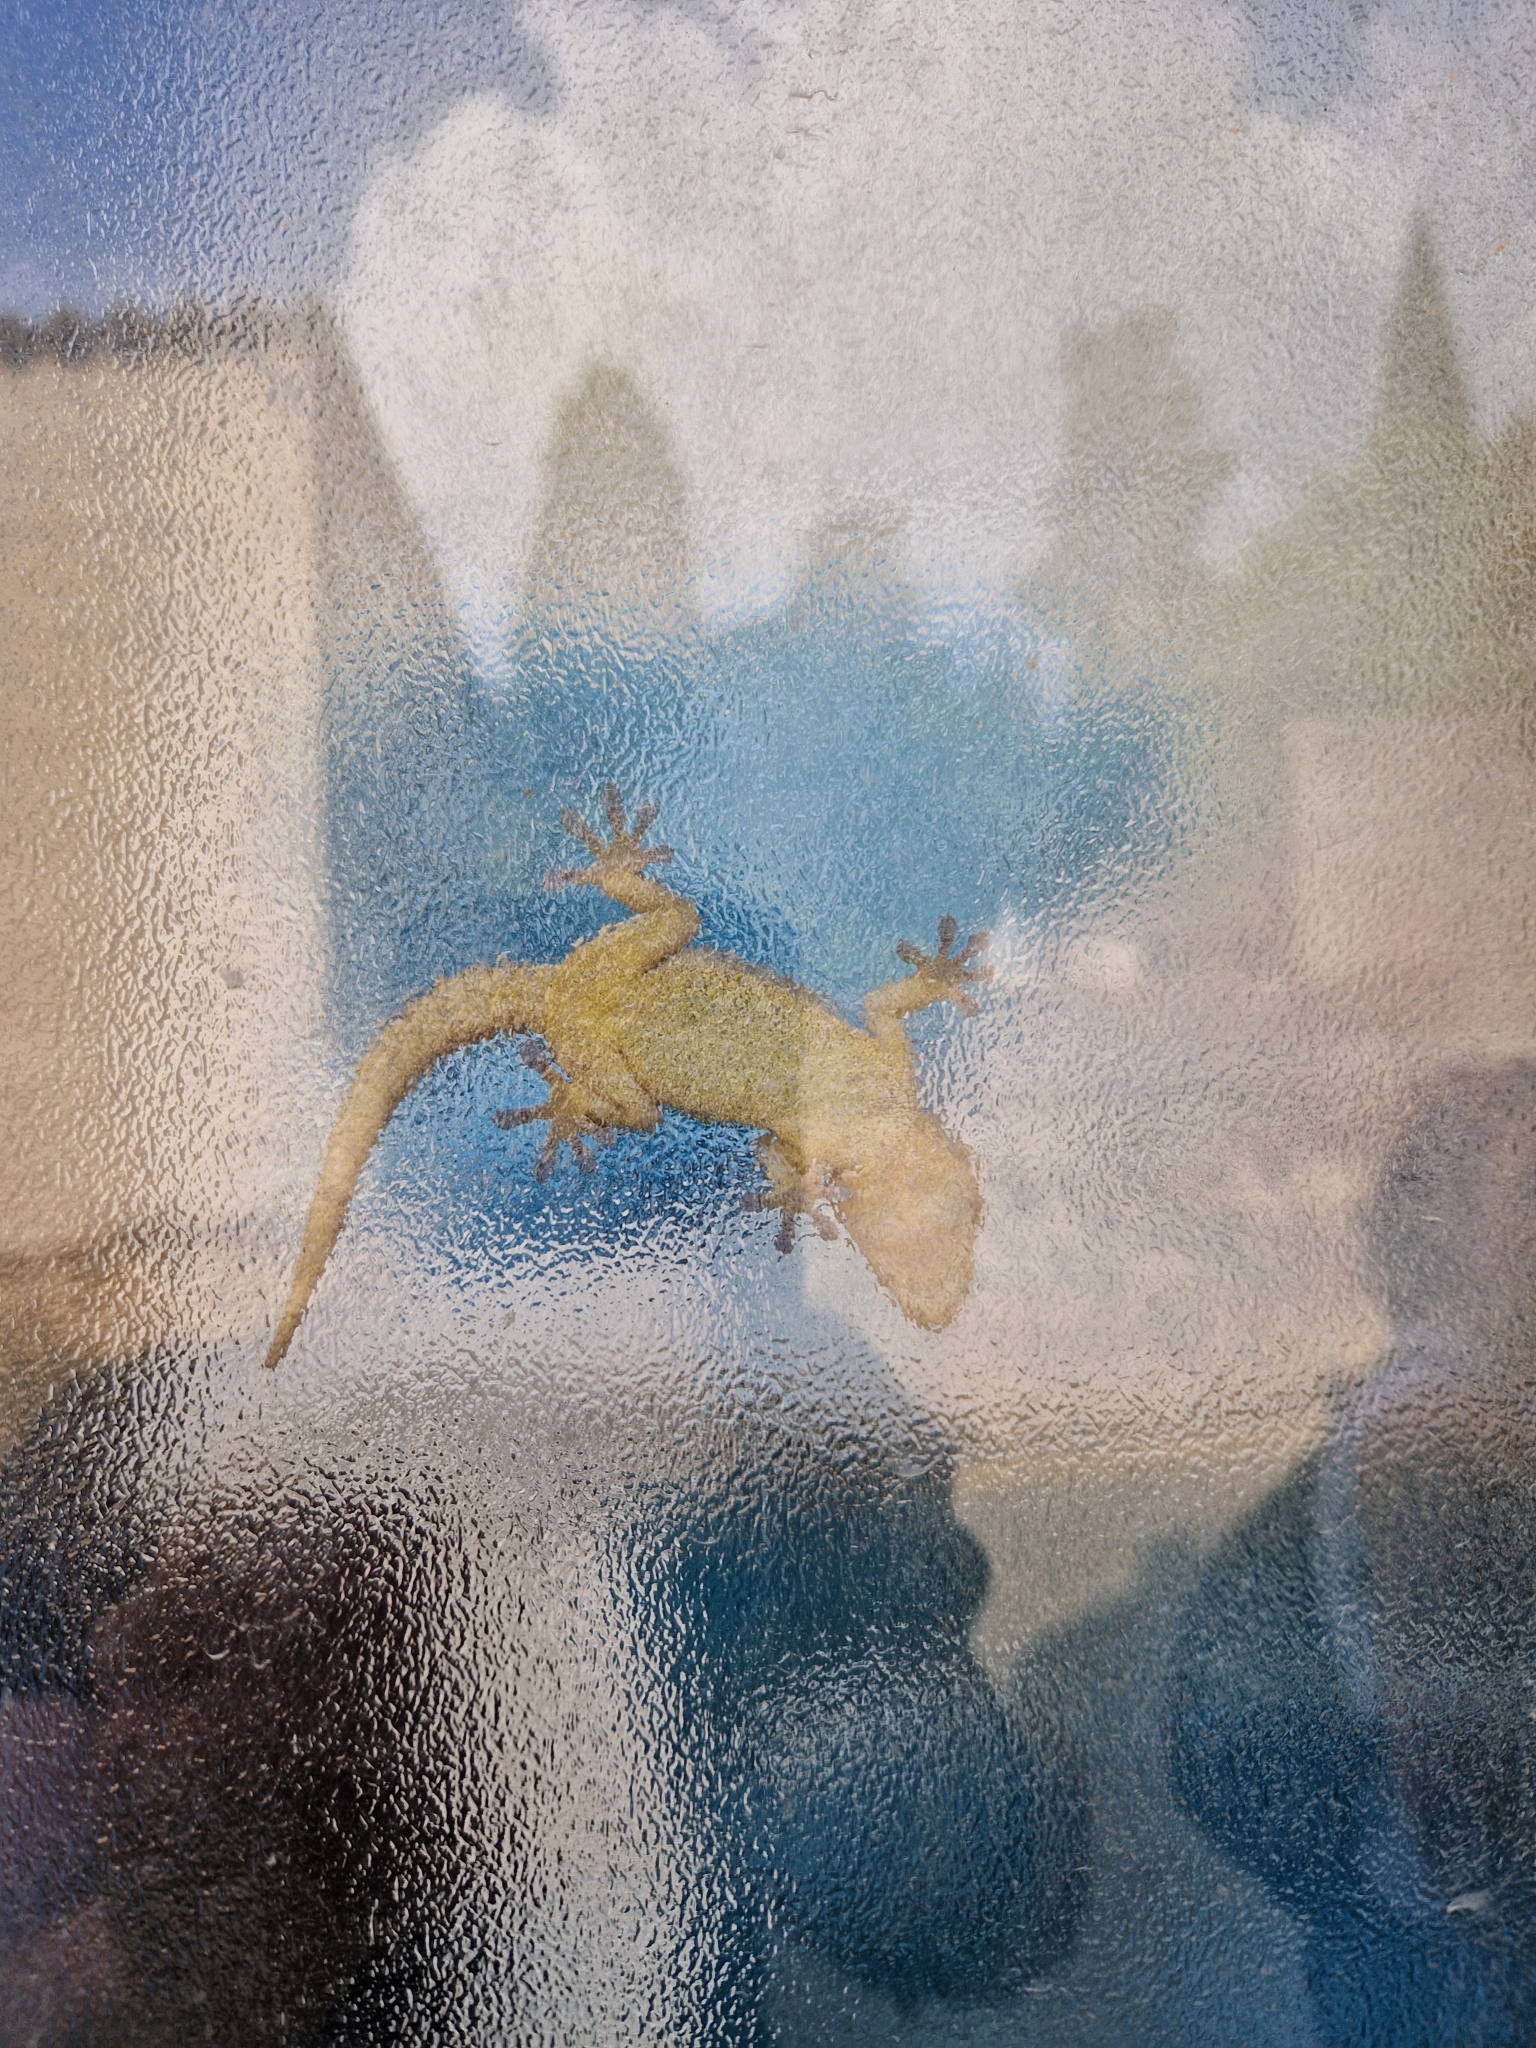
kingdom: Animalia
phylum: Chordata
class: Squamata
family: Phyllodactylidae
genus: Tarentola
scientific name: Tarentola mauritanica
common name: Moorish gecko
